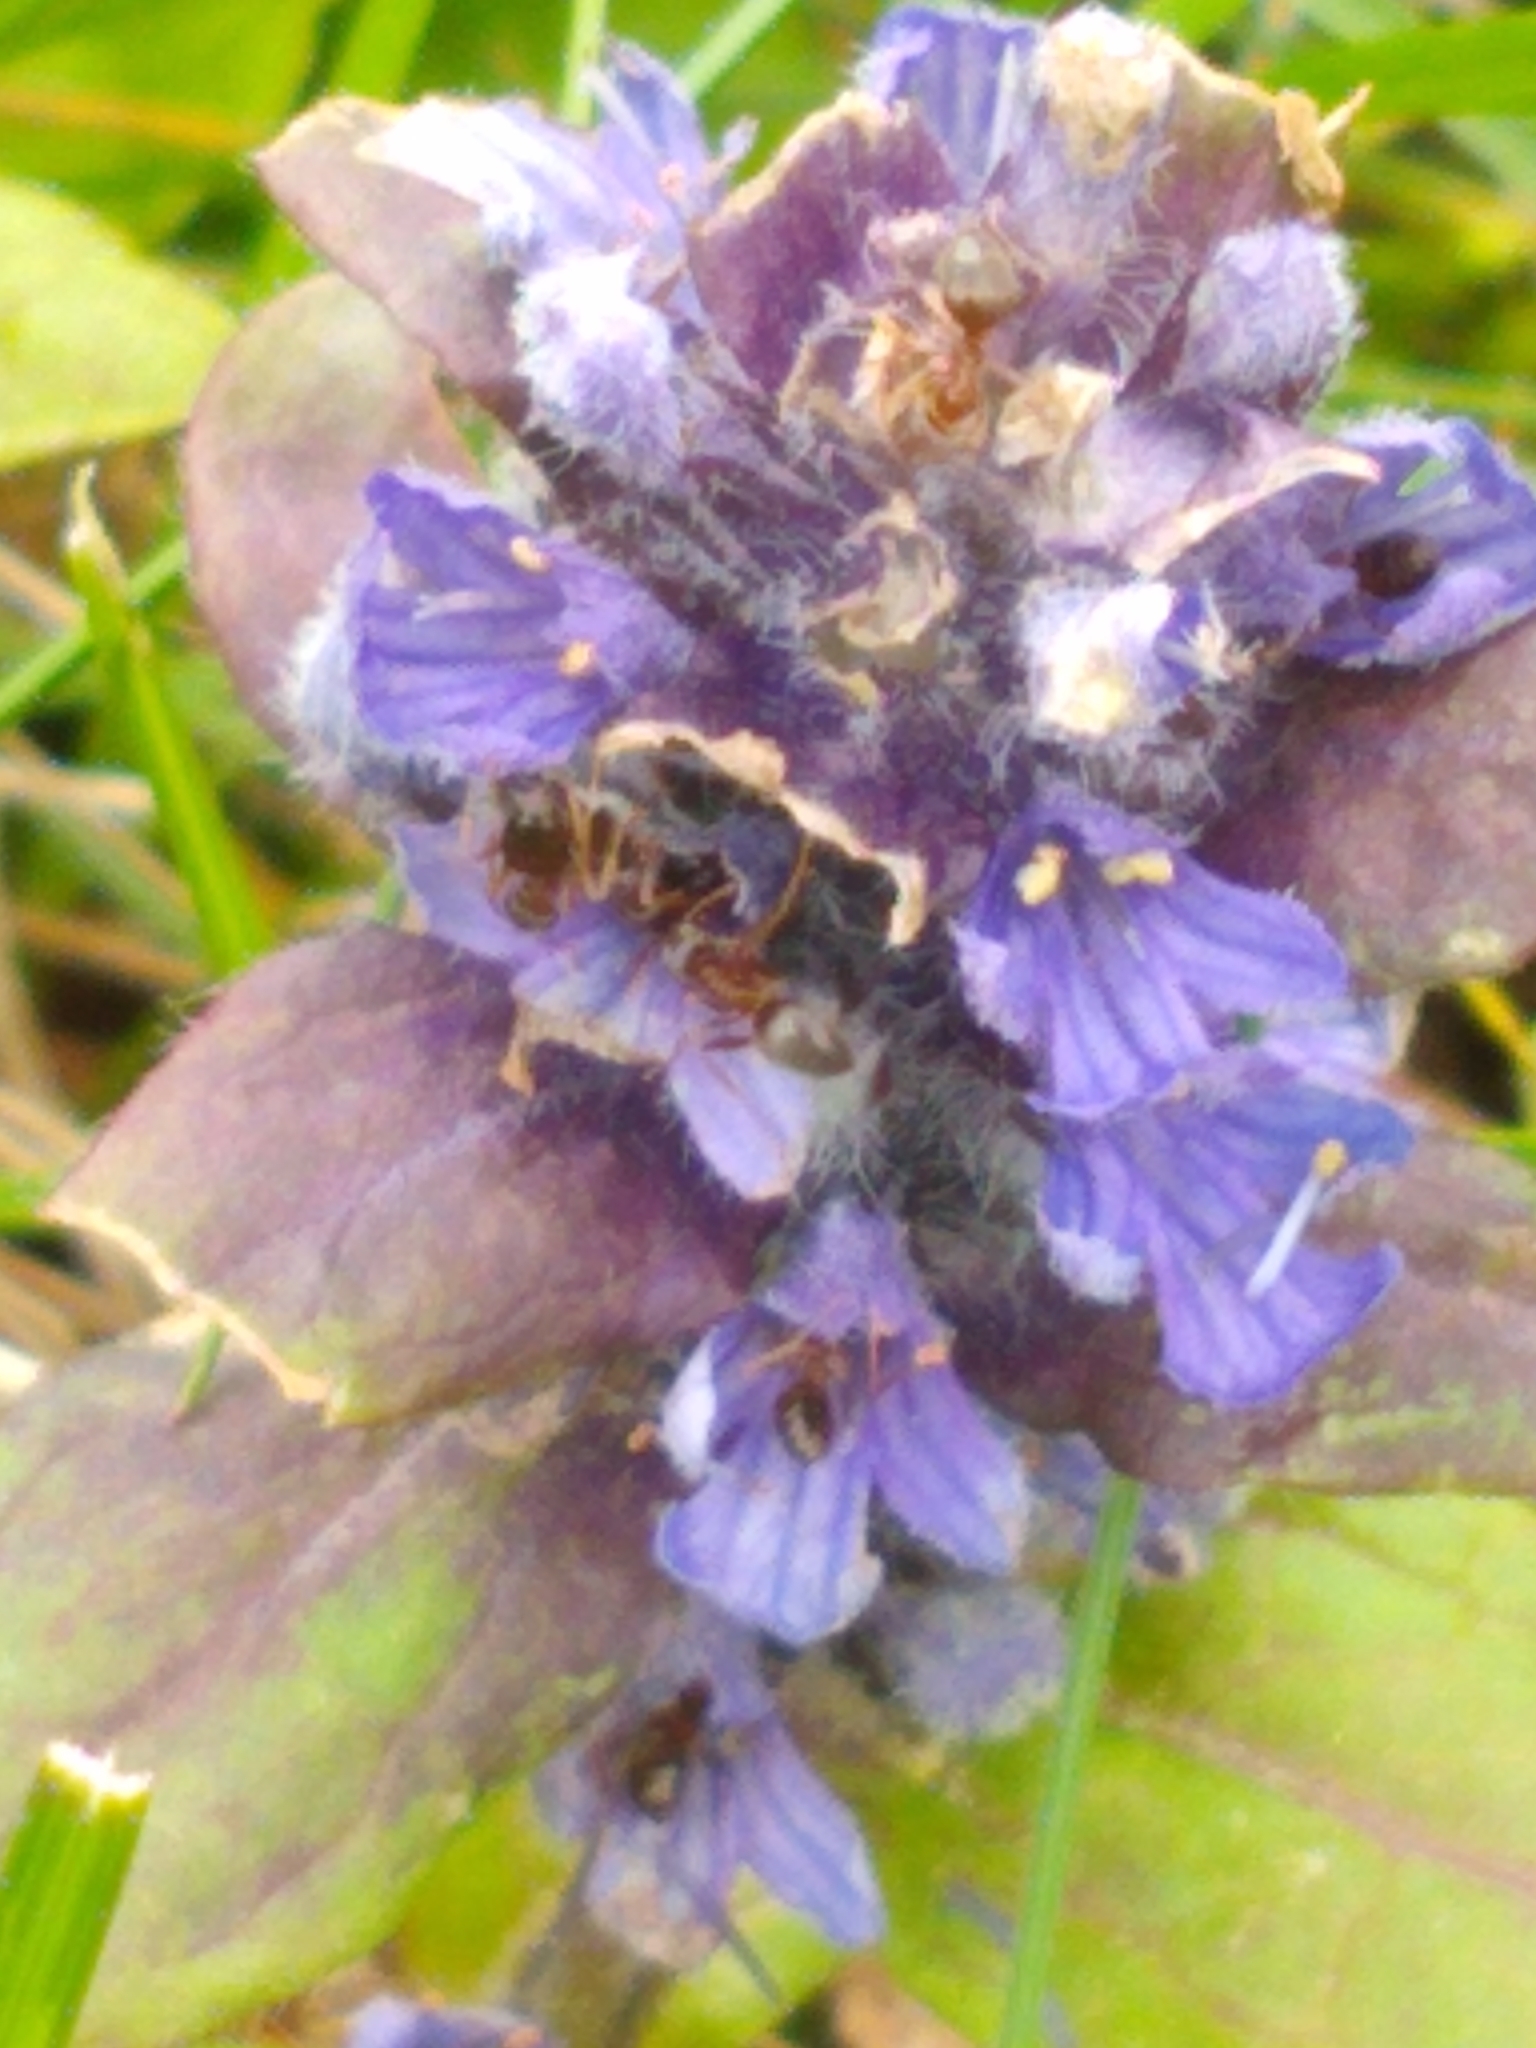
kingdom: Plantae
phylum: Tracheophyta
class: Magnoliopsida
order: Lamiales
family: Lamiaceae
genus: Ajuga
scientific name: Ajuga reptans
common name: Bugle
